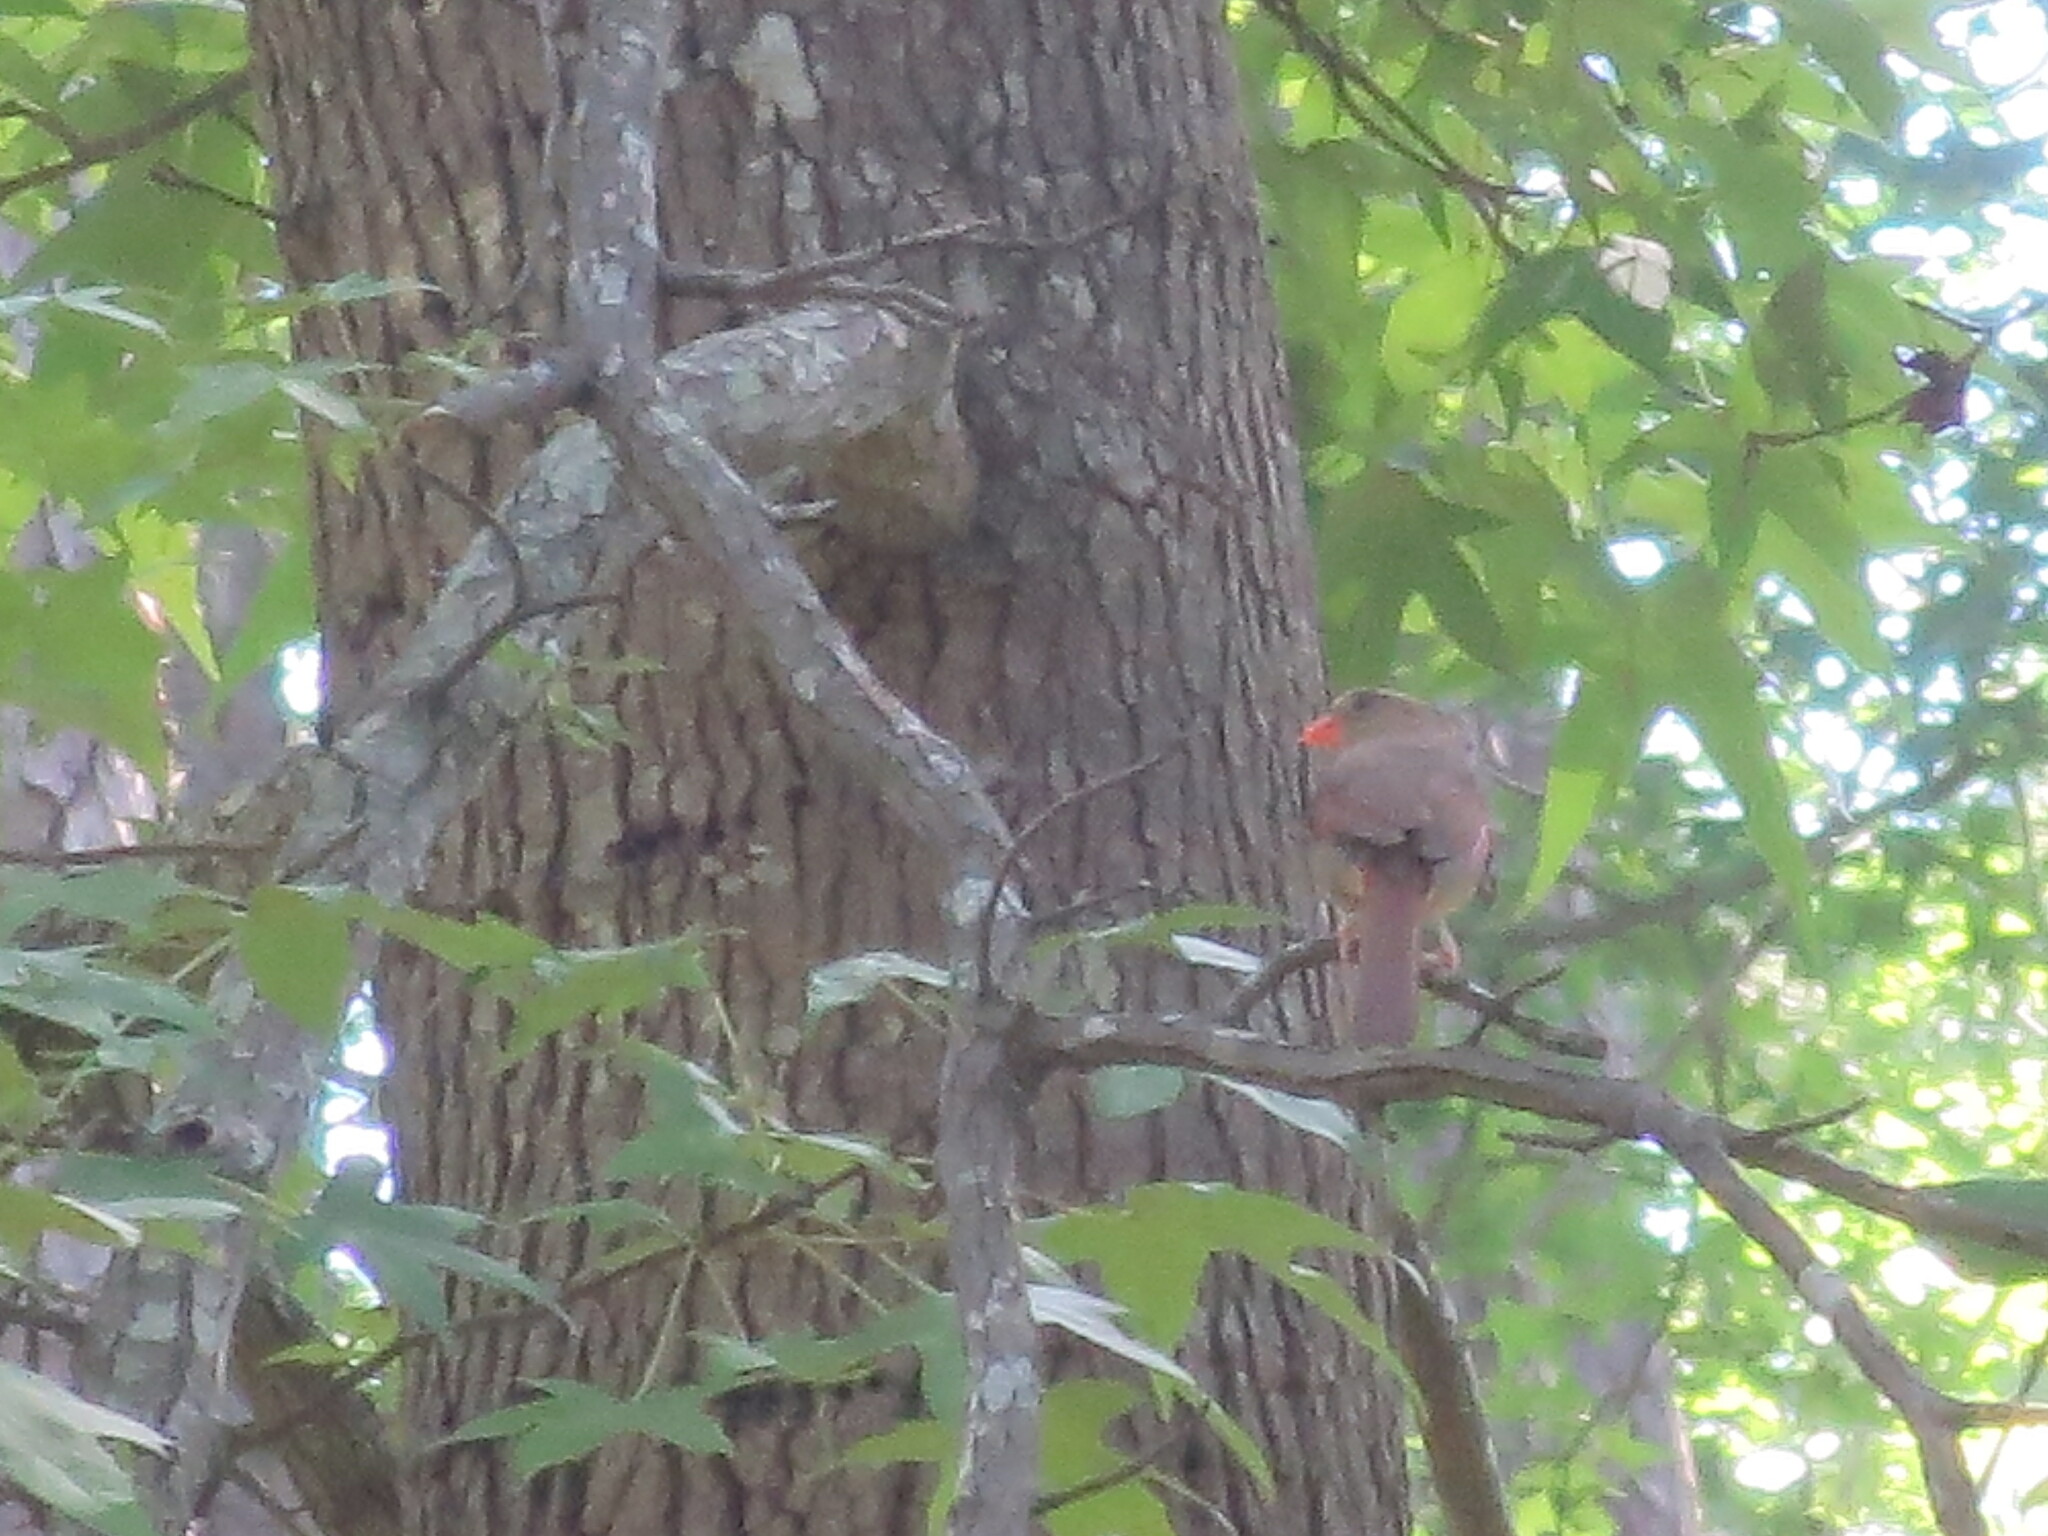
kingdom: Animalia
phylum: Chordata
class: Aves
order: Passeriformes
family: Cardinalidae
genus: Cardinalis
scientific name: Cardinalis cardinalis
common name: Northern cardinal
